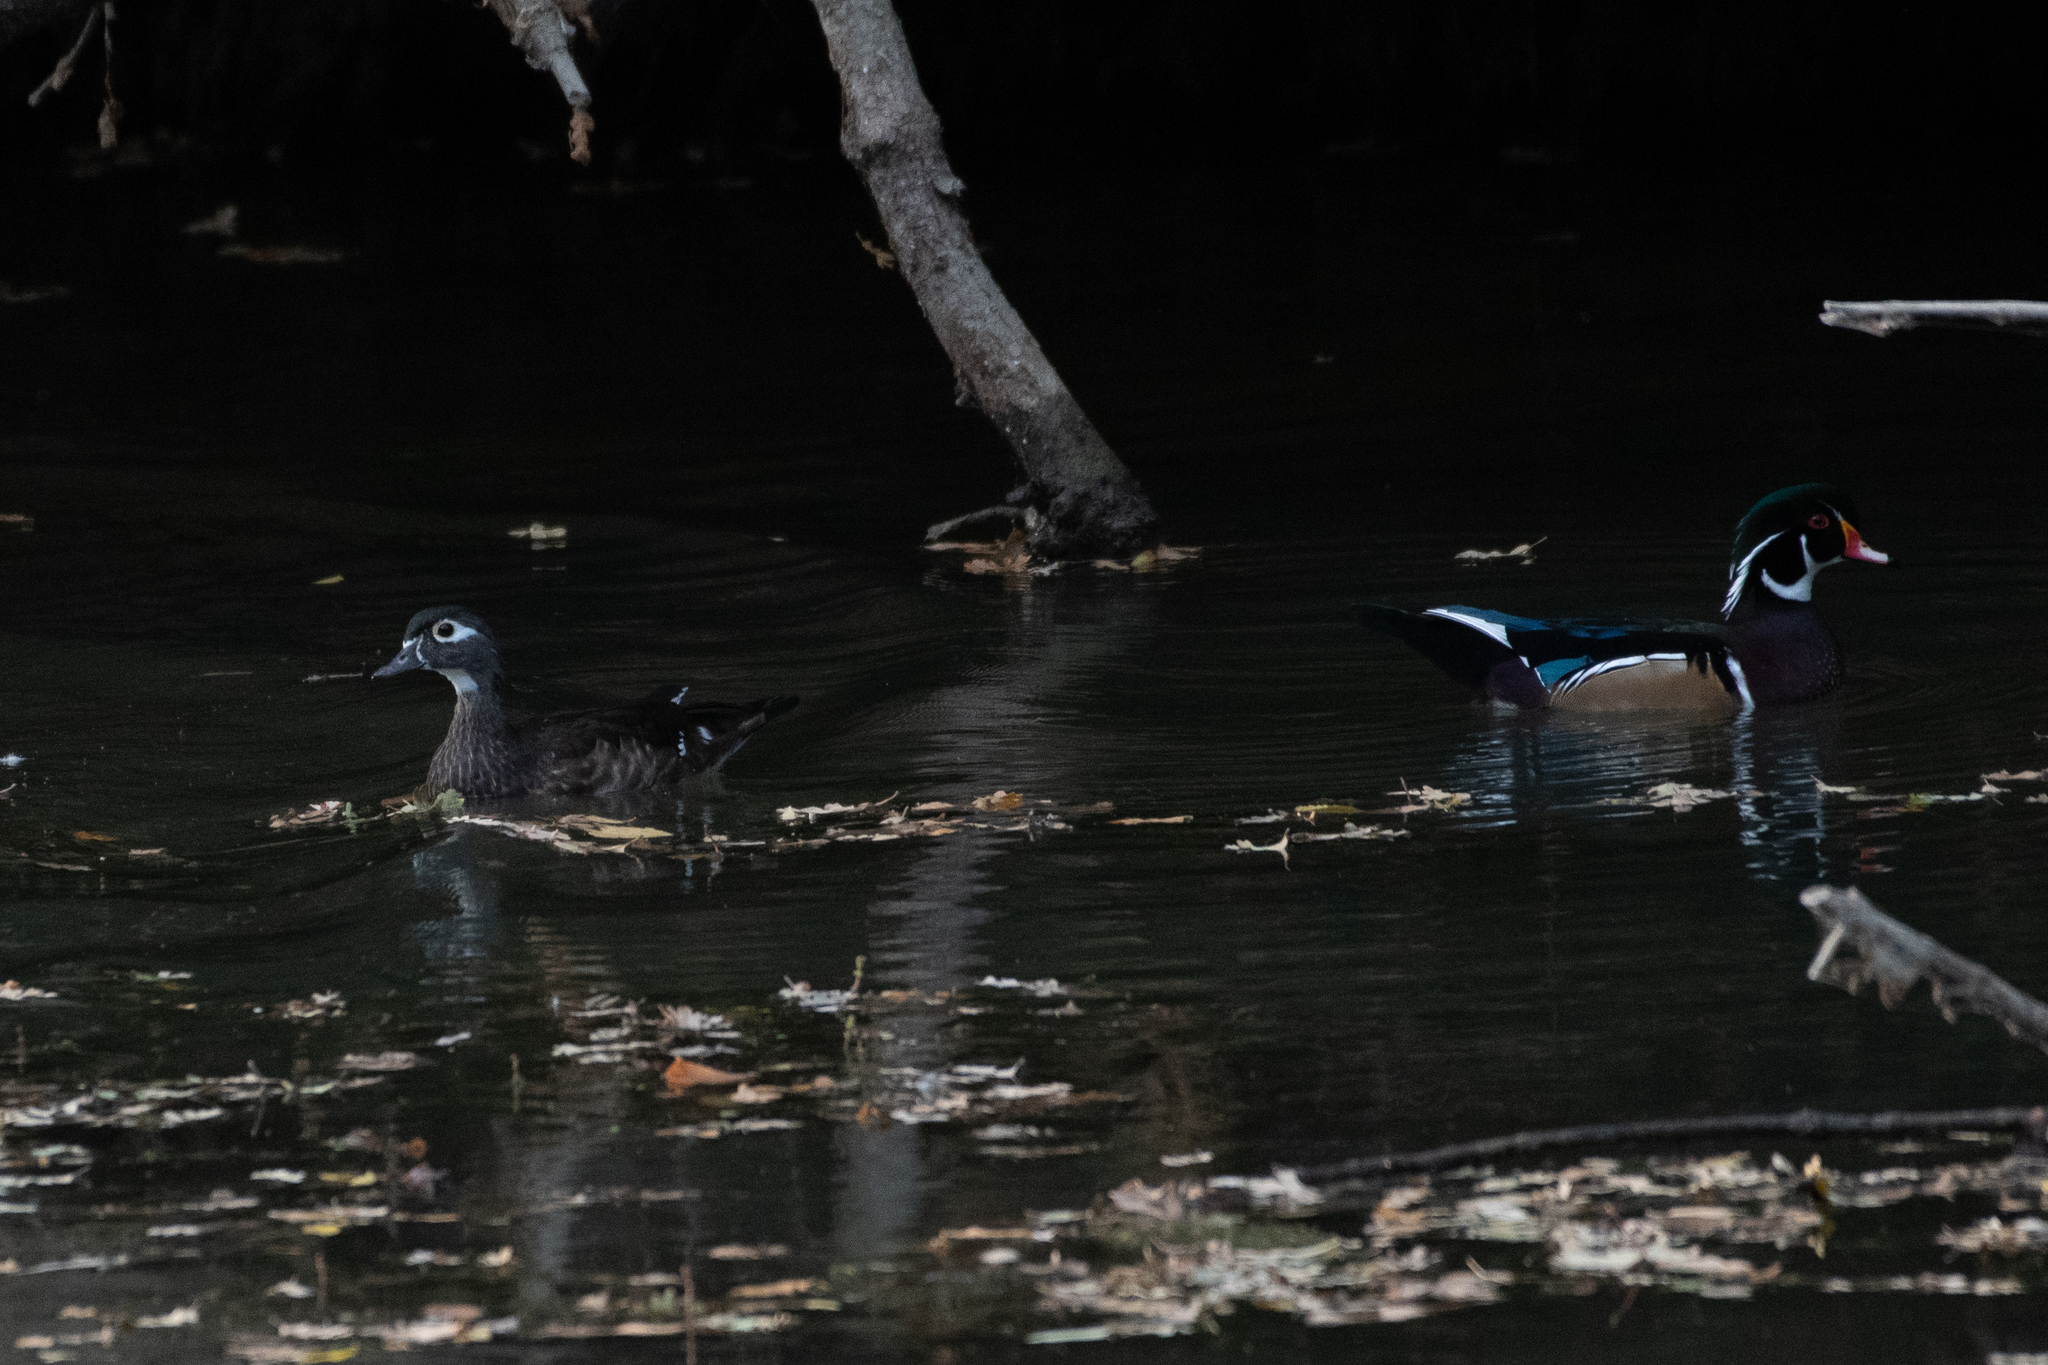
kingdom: Animalia
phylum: Chordata
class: Aves
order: Anseriformes
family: Anatidae
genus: Aix
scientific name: Aix sponsa
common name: Wood duck
